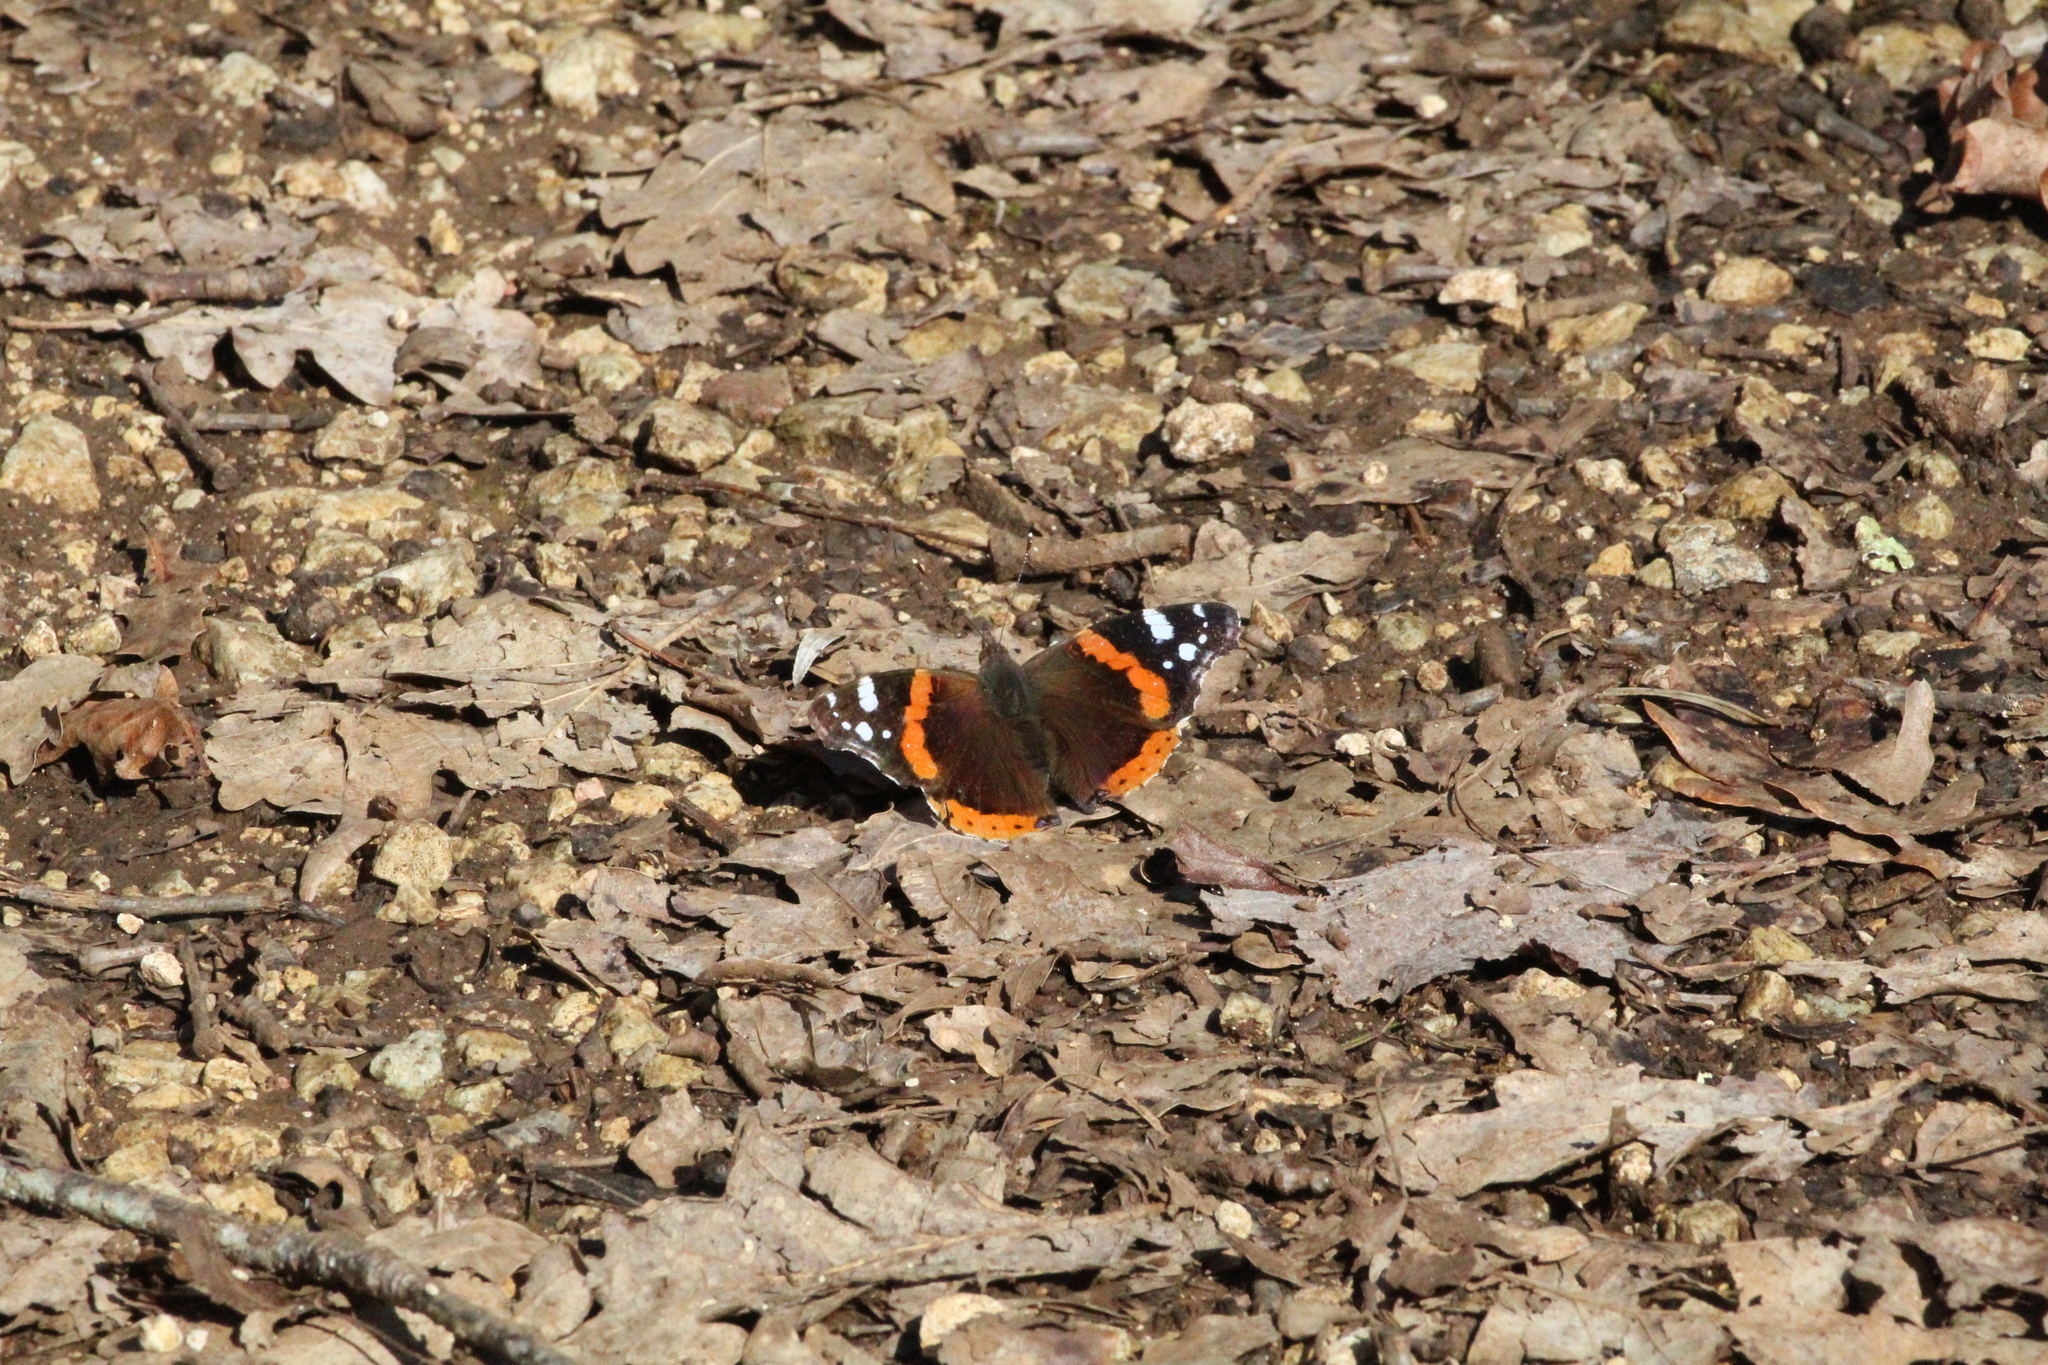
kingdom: Animalia
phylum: Arthropoda
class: Insecta
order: Lepidoptera
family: Nymphalidae
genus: Vanessa
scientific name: Vanessa atalanta
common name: Red admiral
